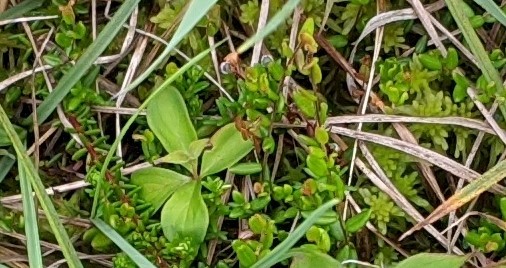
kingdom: Plantae
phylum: Tracheophyta
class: Magnoliopsida
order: Ericales
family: Ericaceae
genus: Vaccinium
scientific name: Vaccinium oxycoccos
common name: Cranberry
